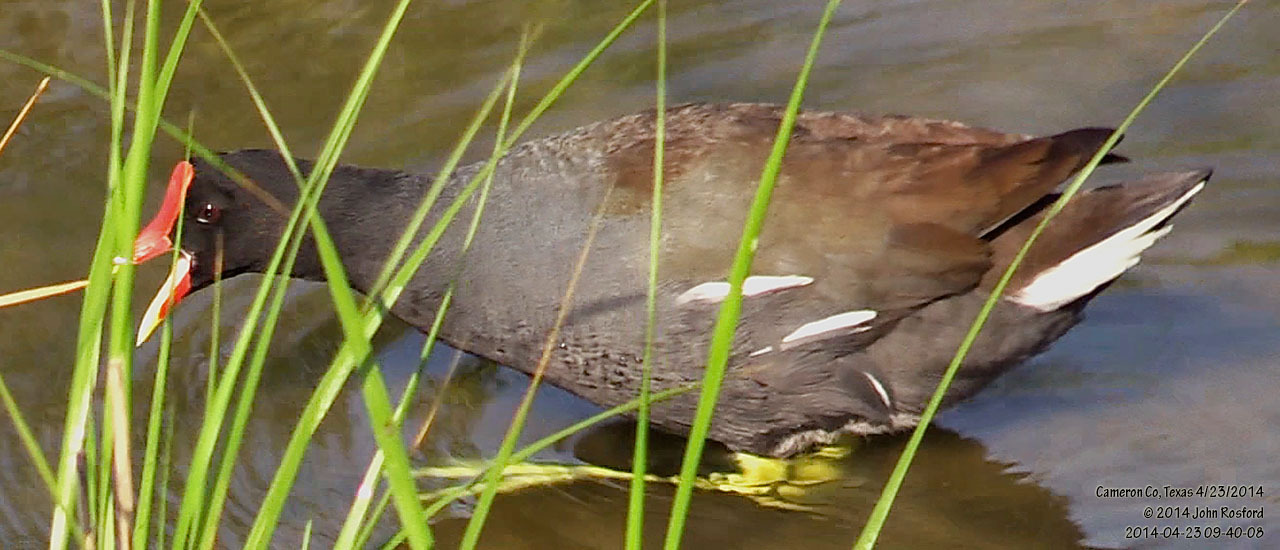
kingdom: Animalia
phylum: Chordata
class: Aves
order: Gruiformes
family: Rallidae
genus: Gallinula
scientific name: Gallinula chloropus
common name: Common moorhen
